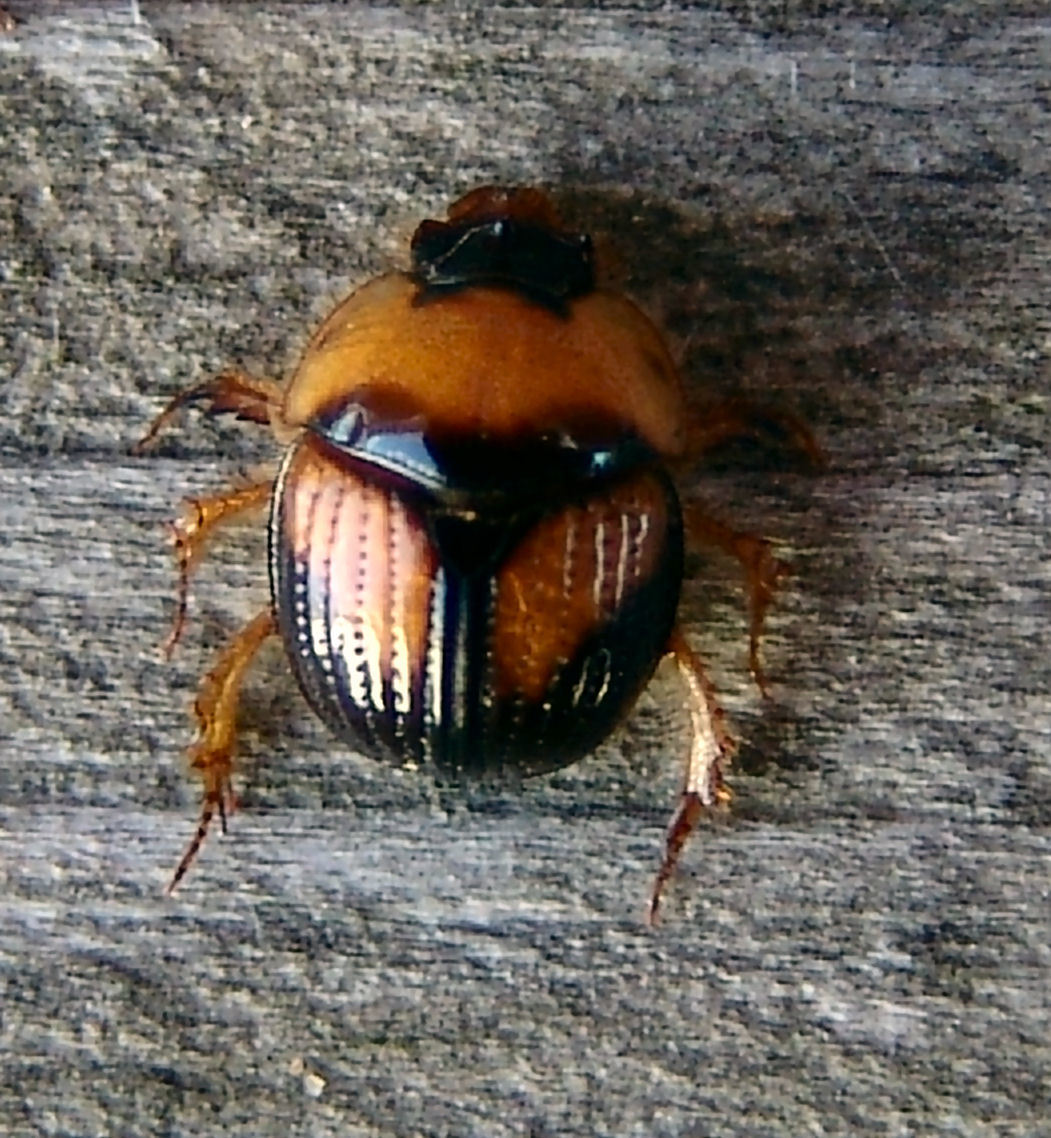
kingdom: Animalia
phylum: Arthropoda
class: Insecta
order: Coleoptera
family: Geotrupidae
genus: Bolbocerosoma
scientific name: Bolbocerosoma lepidissimum
